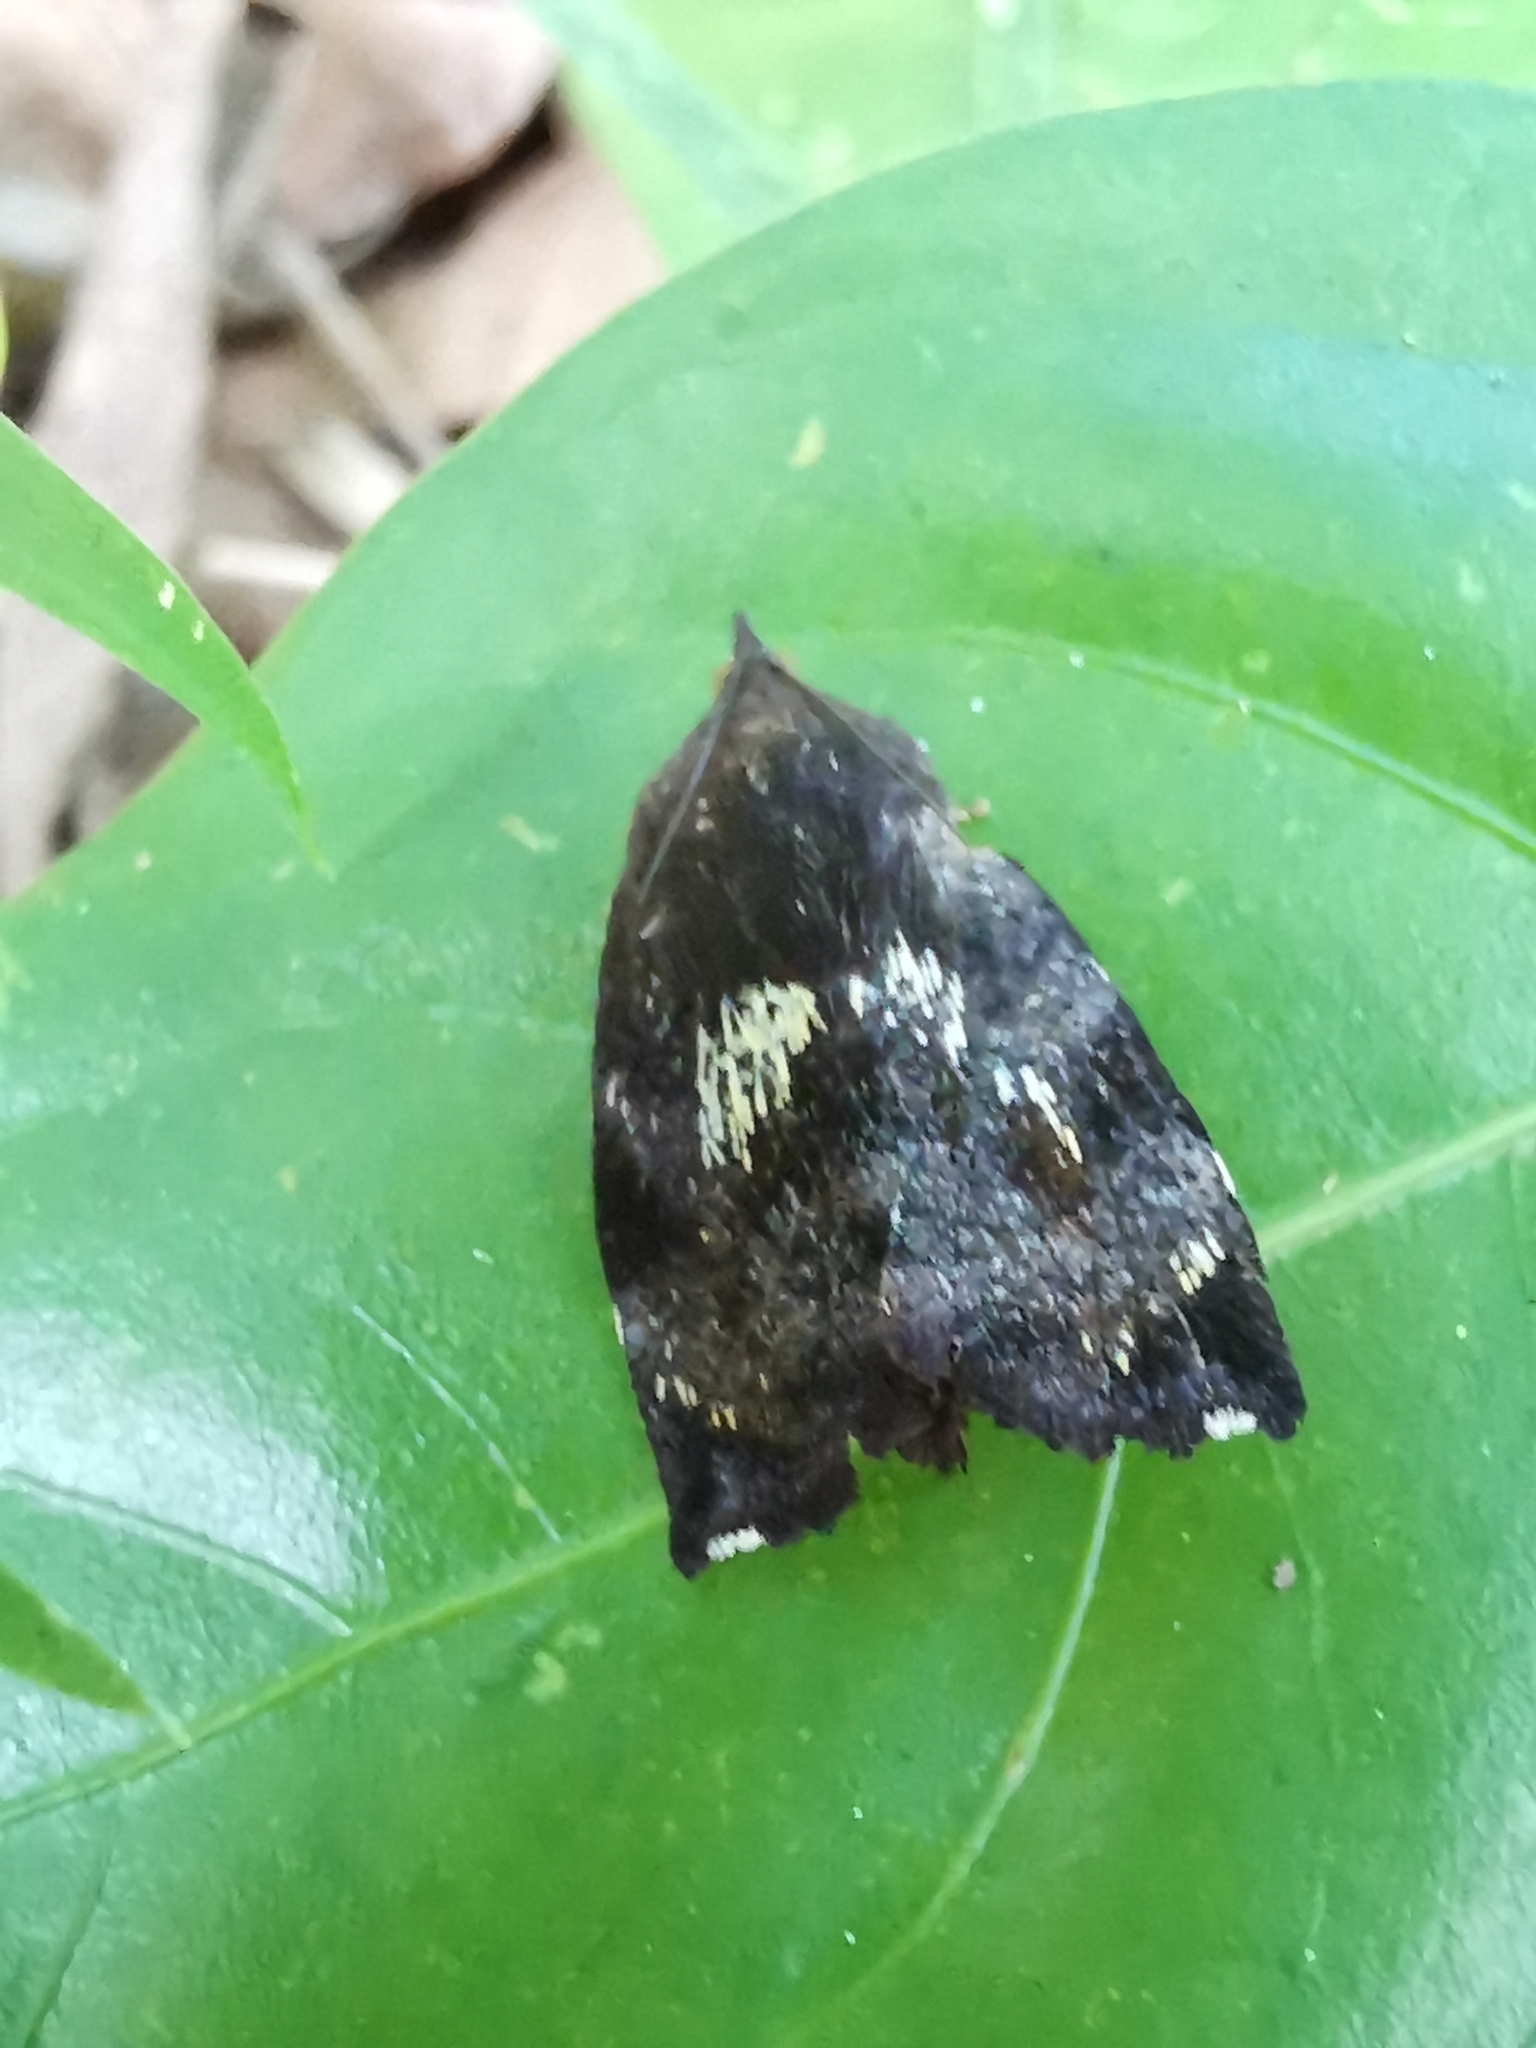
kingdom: Animalia
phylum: Arthropoda
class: Insecta
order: Lepidoptera
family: Hyblaeidae
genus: Hyblaea
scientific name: Hyblaea constellata
